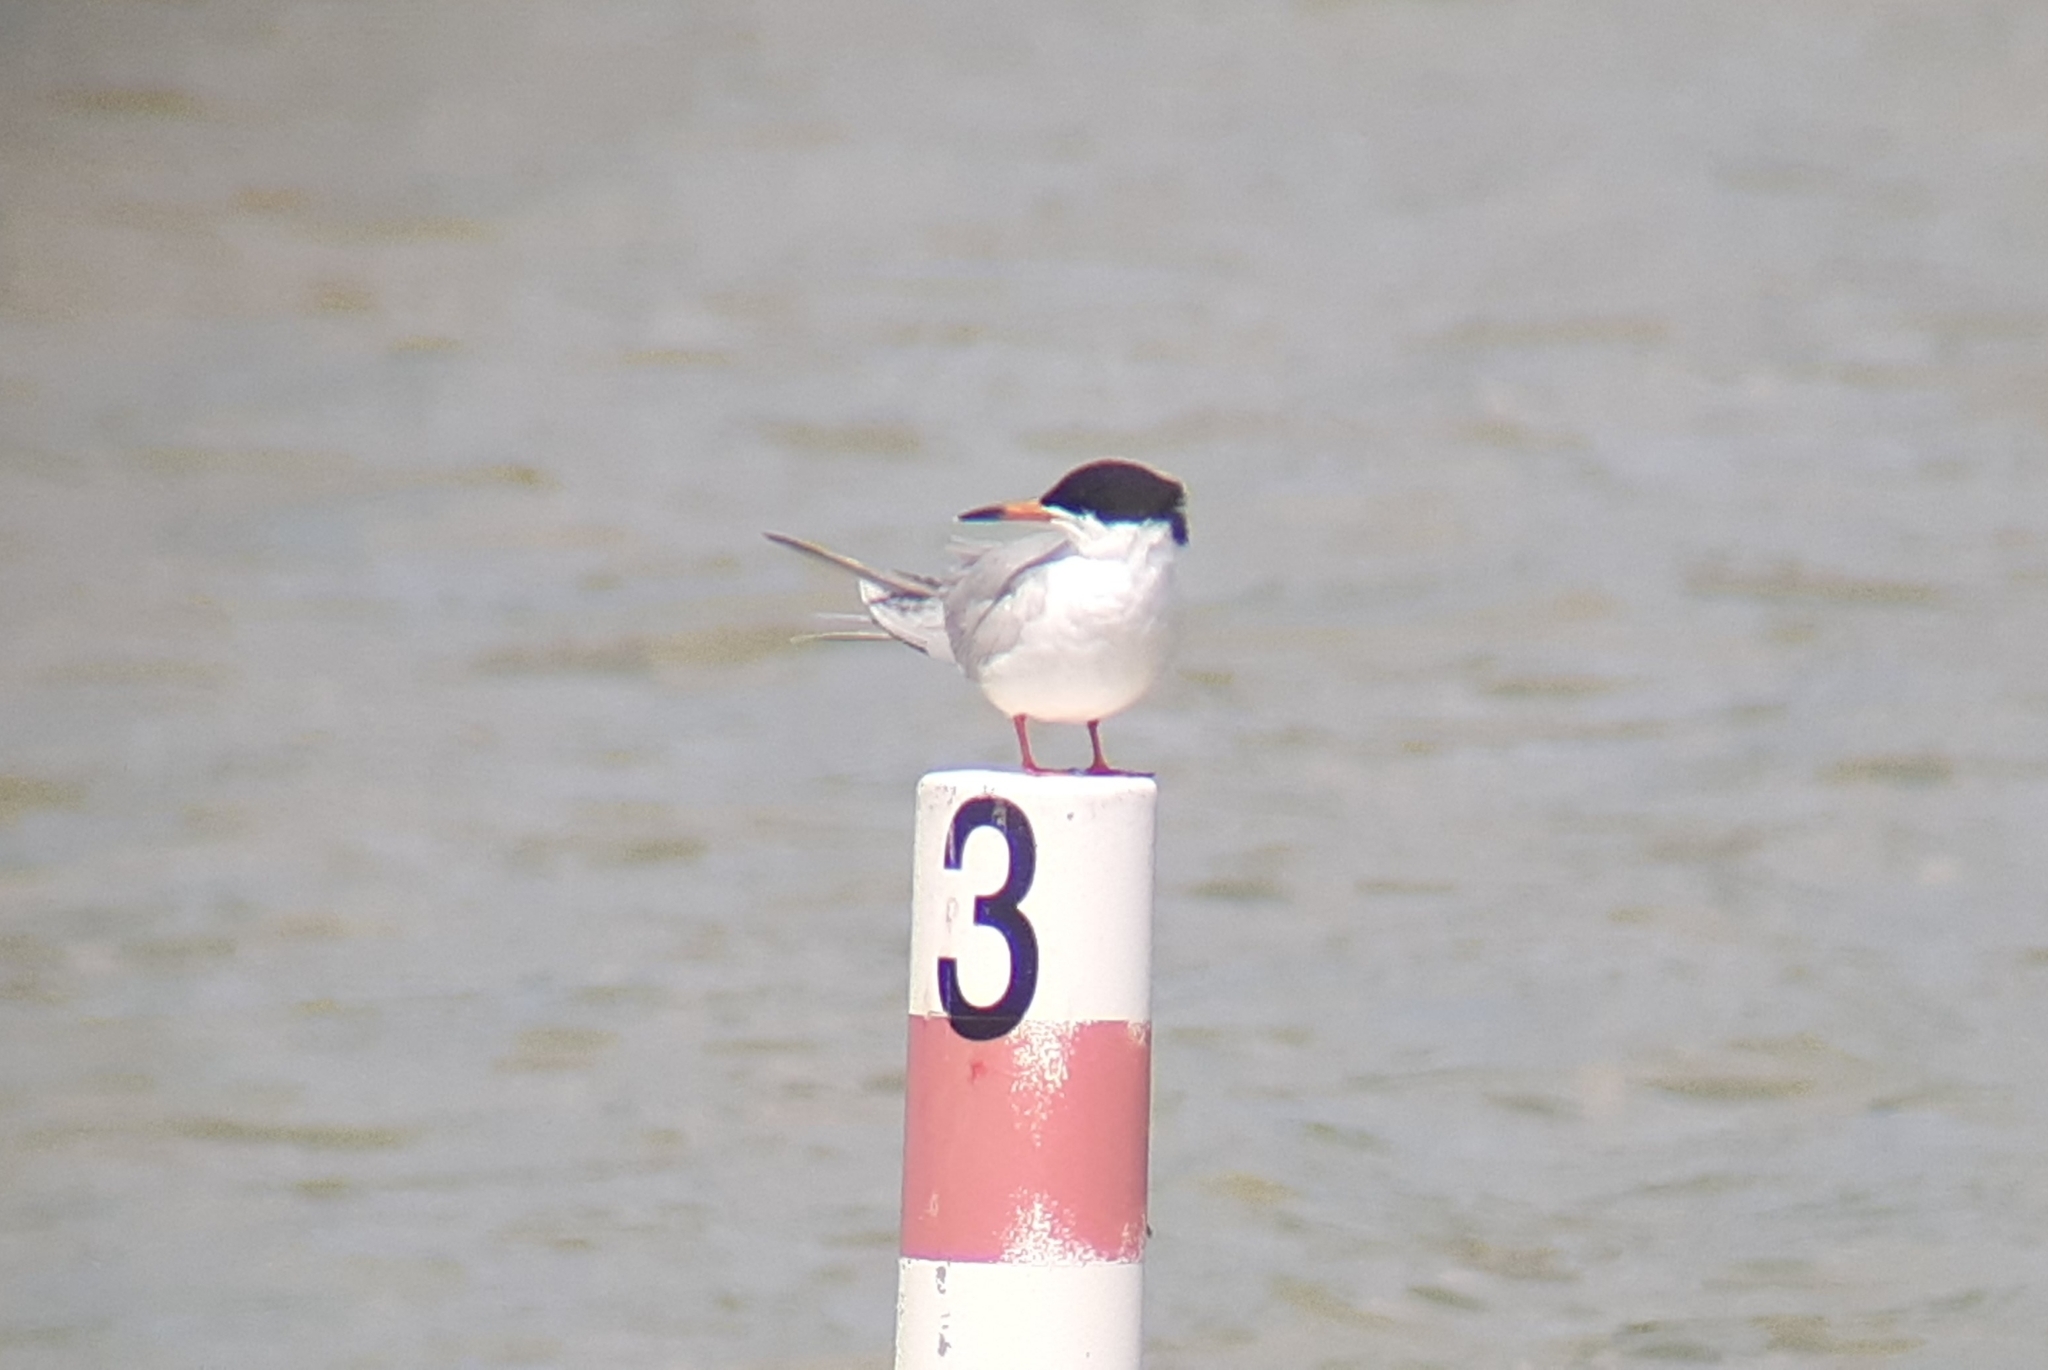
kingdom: Animalia
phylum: Chordata
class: Aves
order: Charadriiformes
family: Laridae
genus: Sterna
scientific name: Sterna forsteri
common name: Forster's tern
